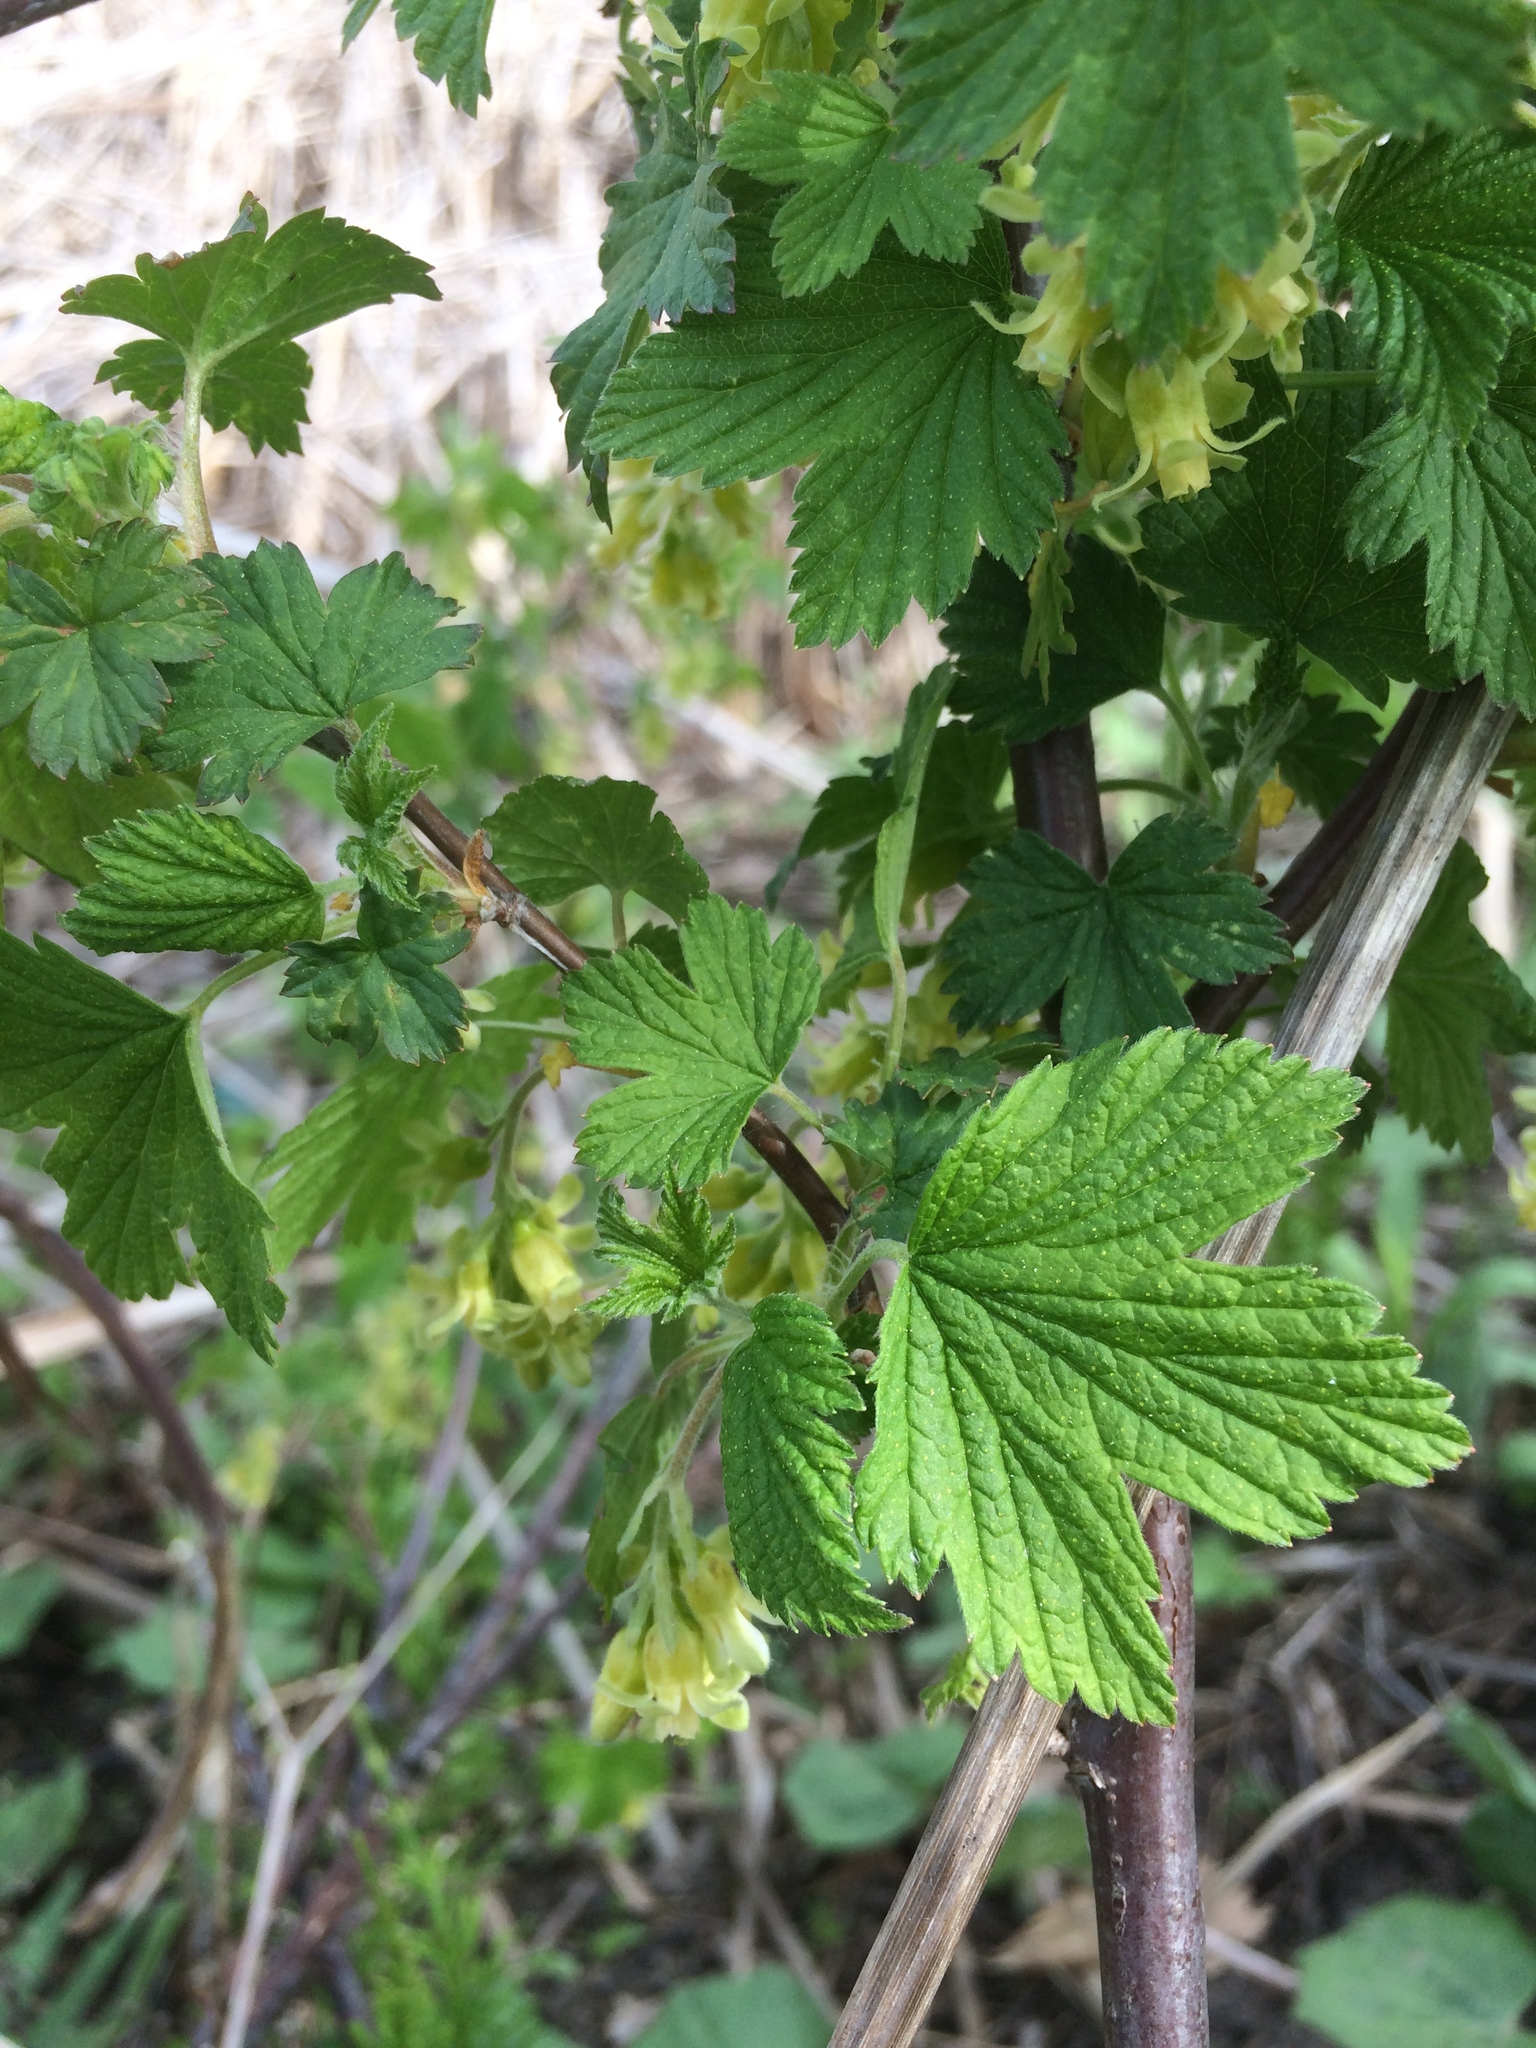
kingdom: Plantae
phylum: Tracheophyta
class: Magnoliopsida
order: Saxifragales
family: Grossulariaceae
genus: Ribes
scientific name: Ribes americanum
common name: American black currant
